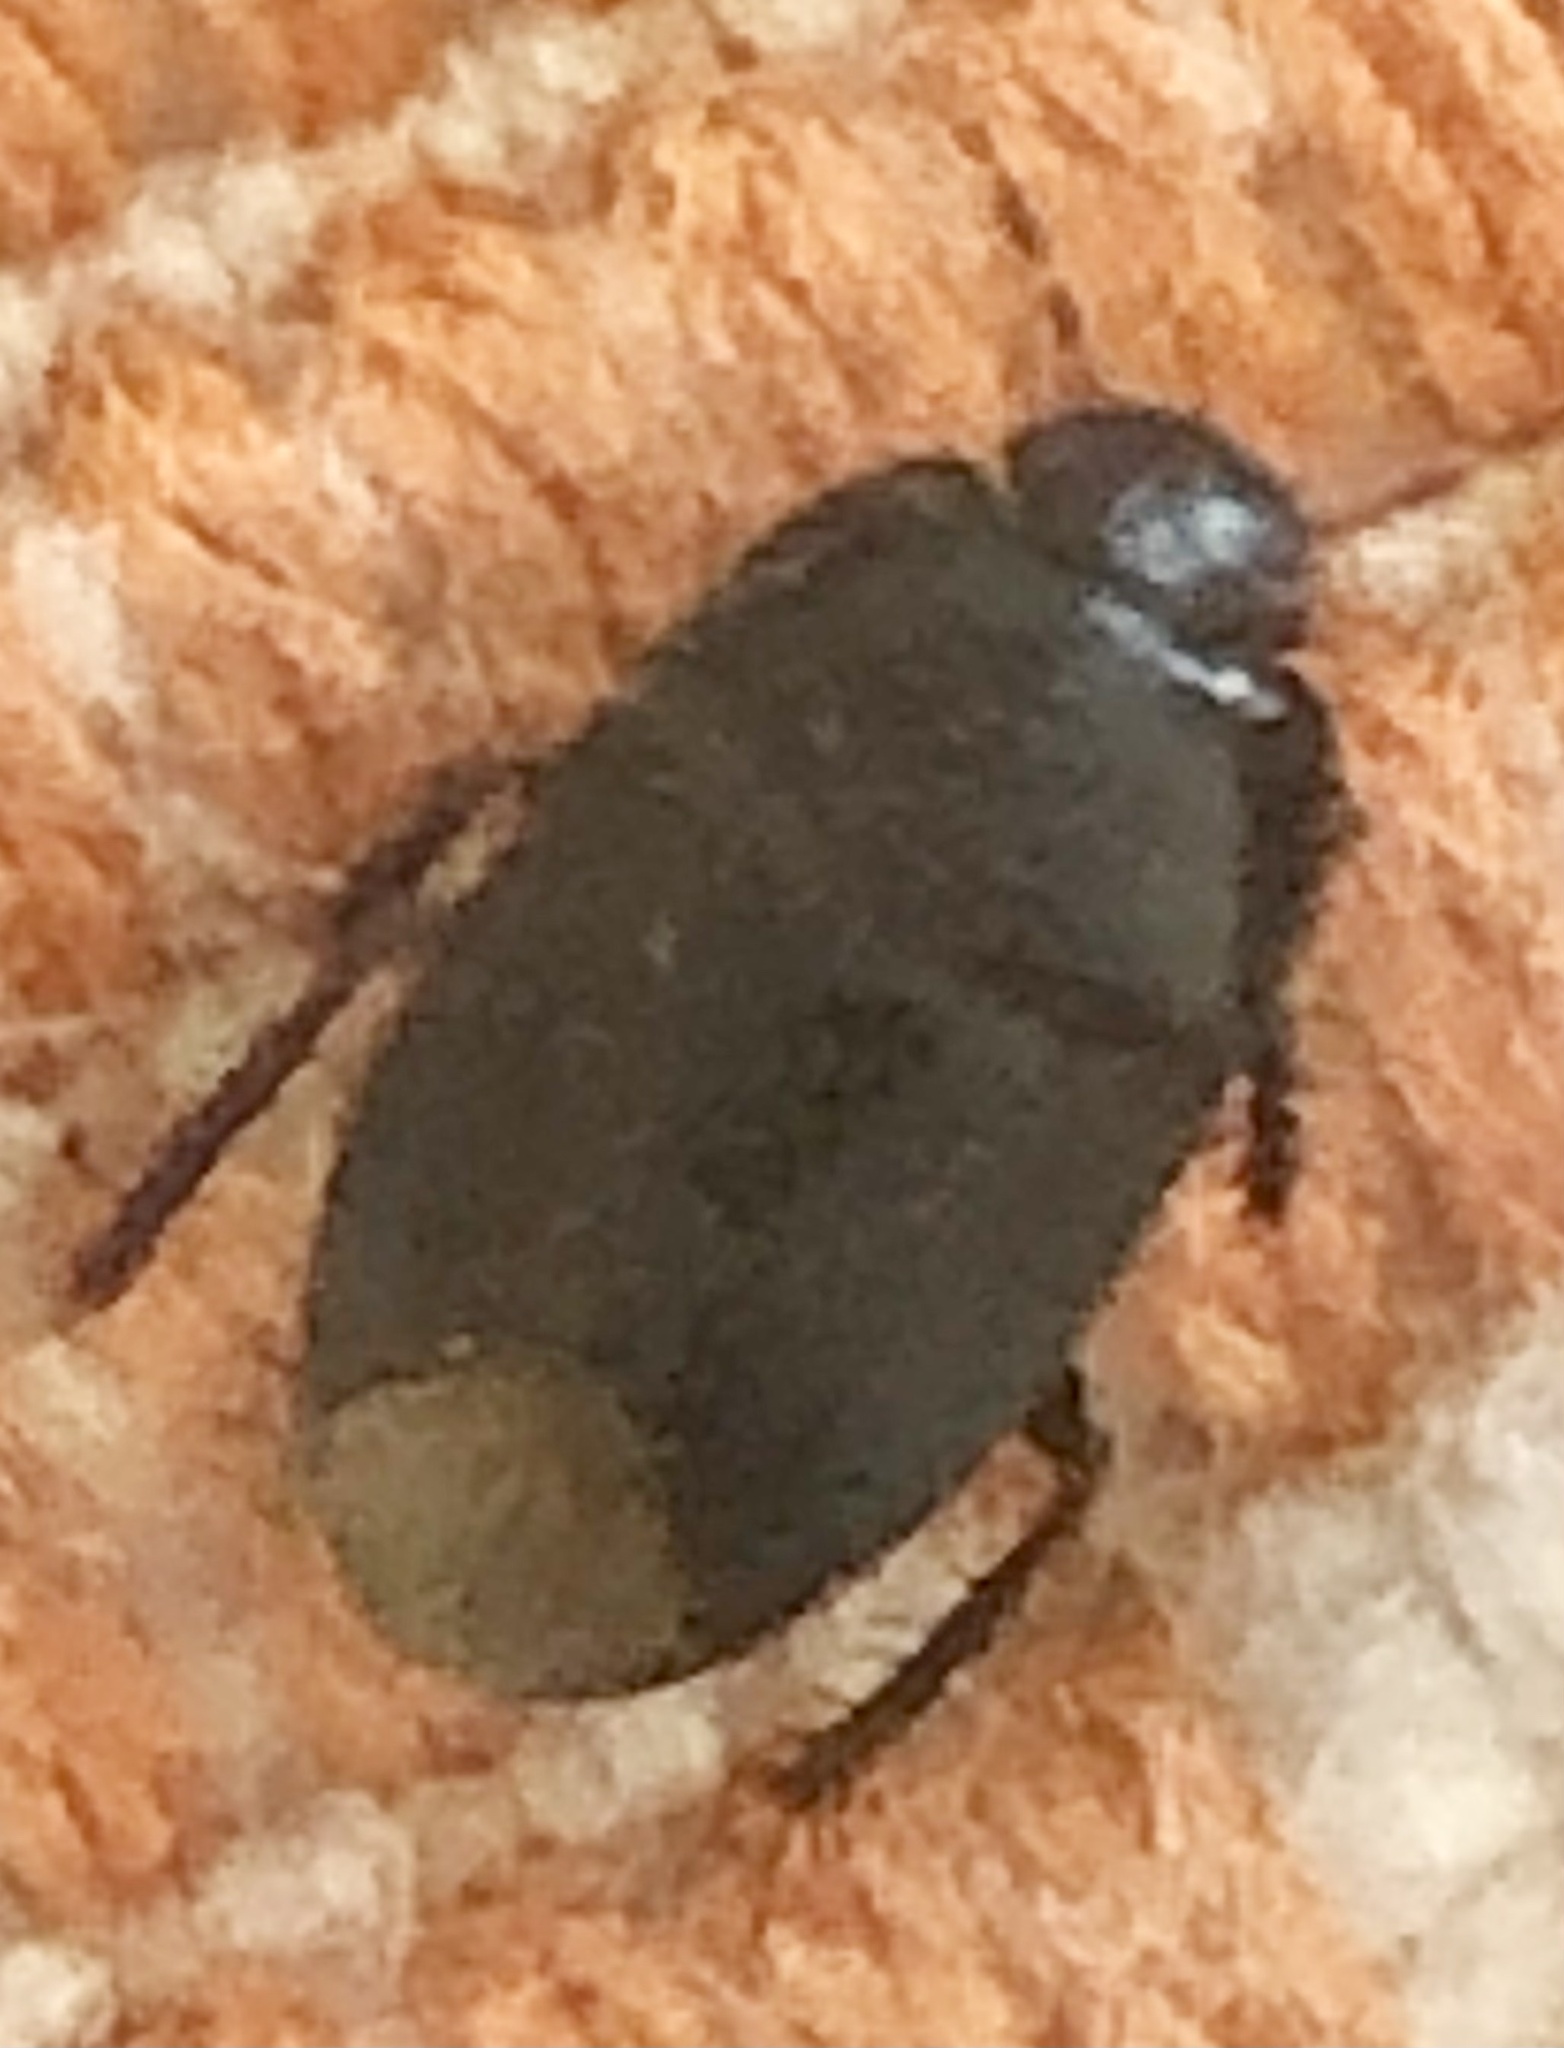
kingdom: Animalia
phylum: Arthropoda
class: Insecta
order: Hemiptera
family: Cydnidae
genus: Melanaethus
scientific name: Melanaethus spinolae
